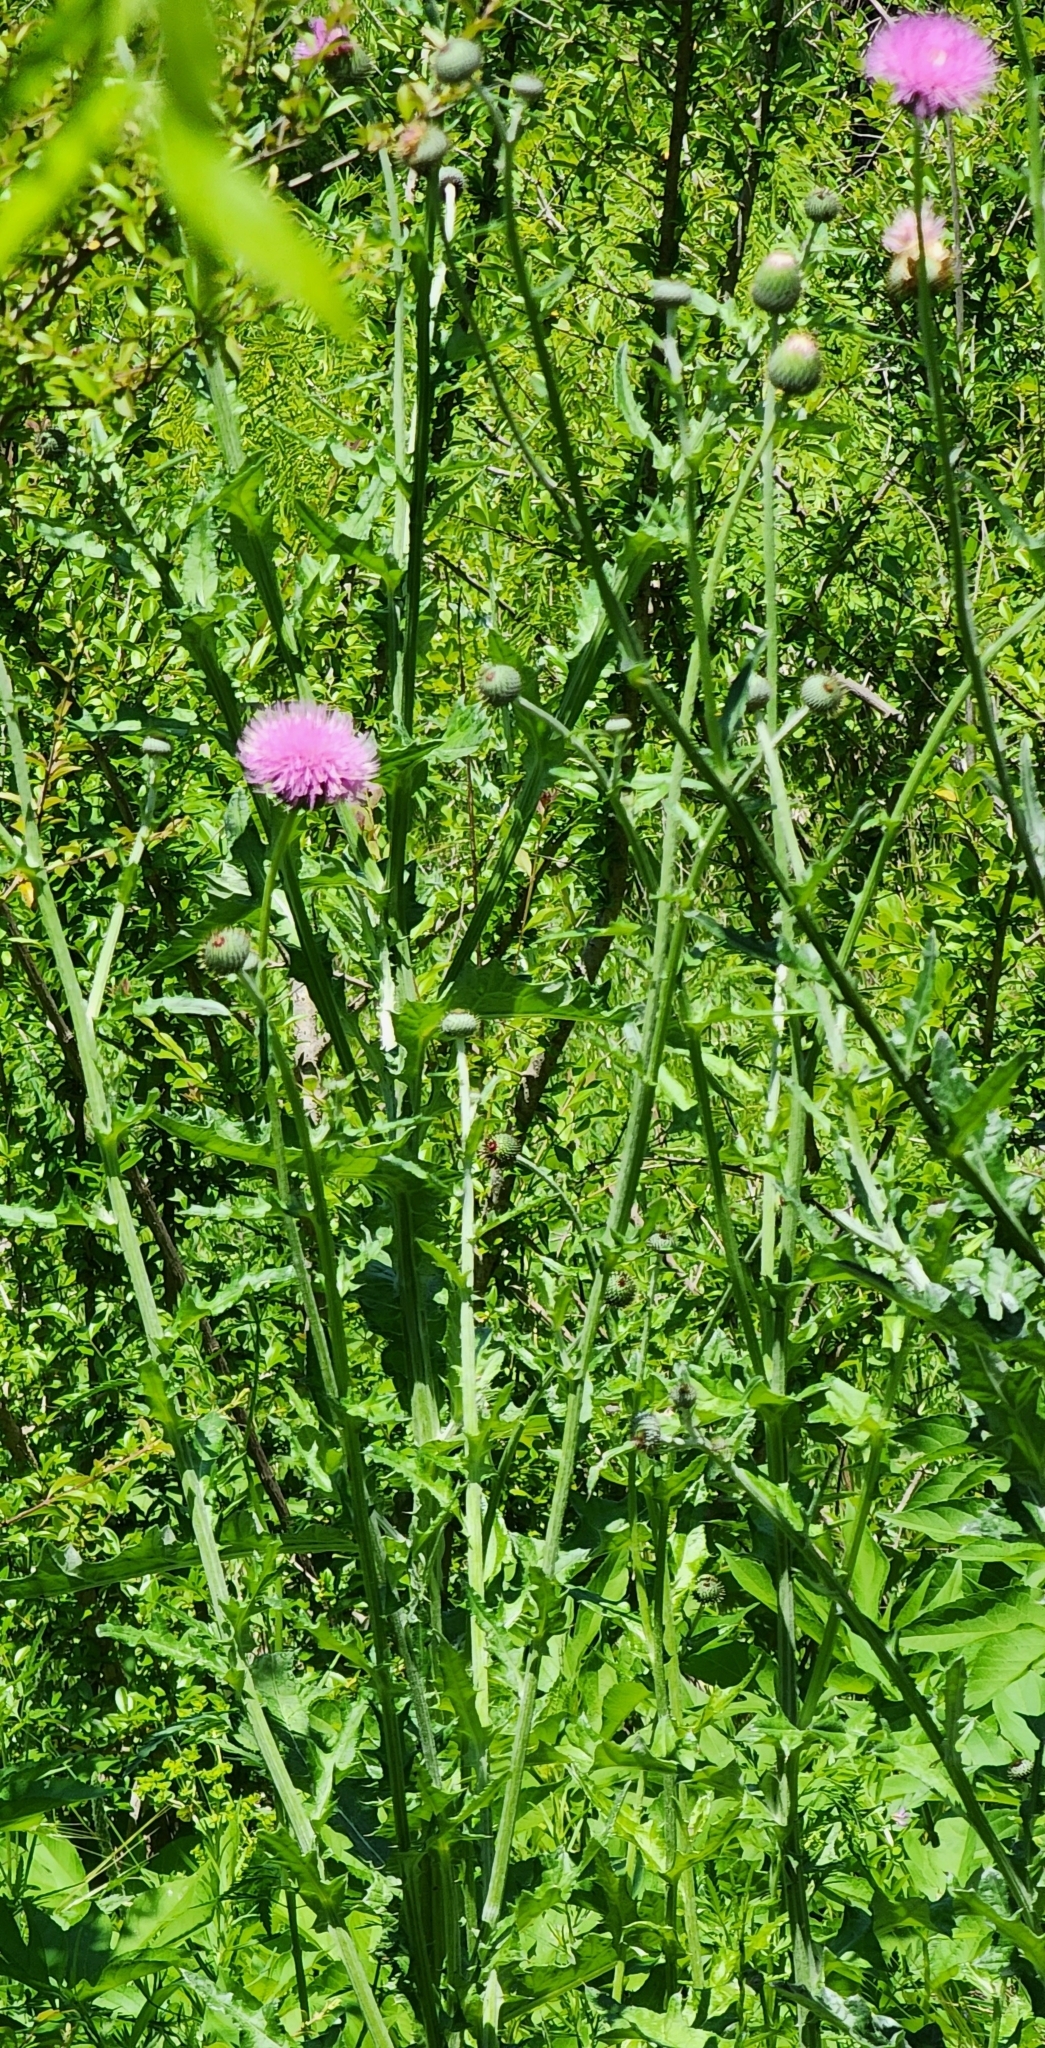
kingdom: Plantae
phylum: Tracheophyta
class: Magnoliopsida
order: Asterales
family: Asteraceae
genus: Cirsium
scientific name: Cirsium texanum
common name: Texas purple thistle
